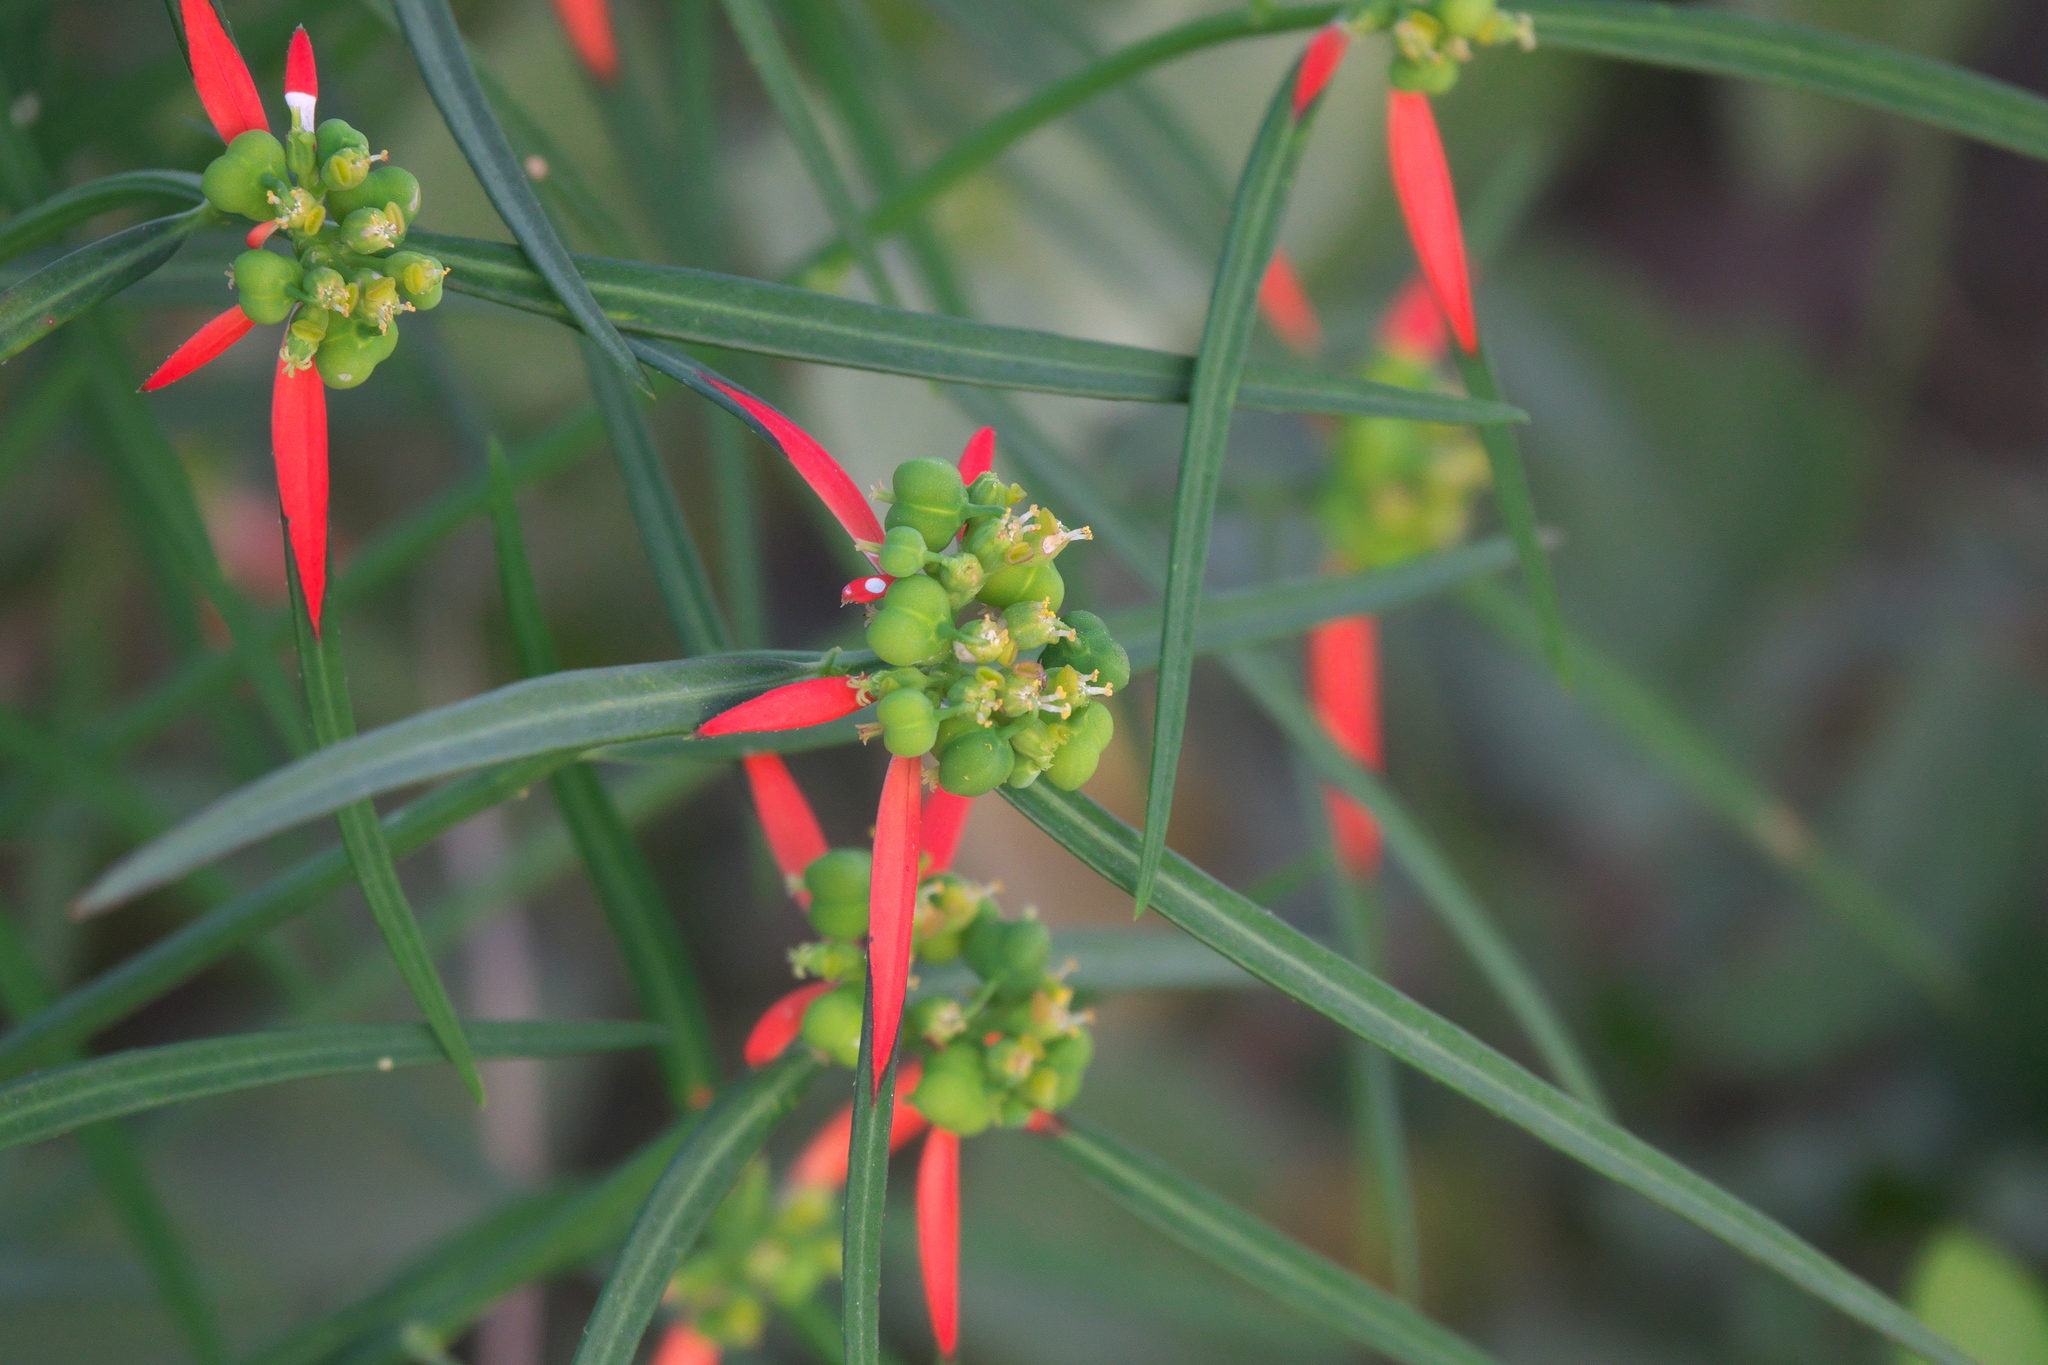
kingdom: Plantae
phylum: Tracheophyta
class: Magnoliopsida
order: Malpighiales
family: Euphorbiaceae
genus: Euphorbia
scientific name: Euphorbia heterophylla
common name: Mexican fireplant
